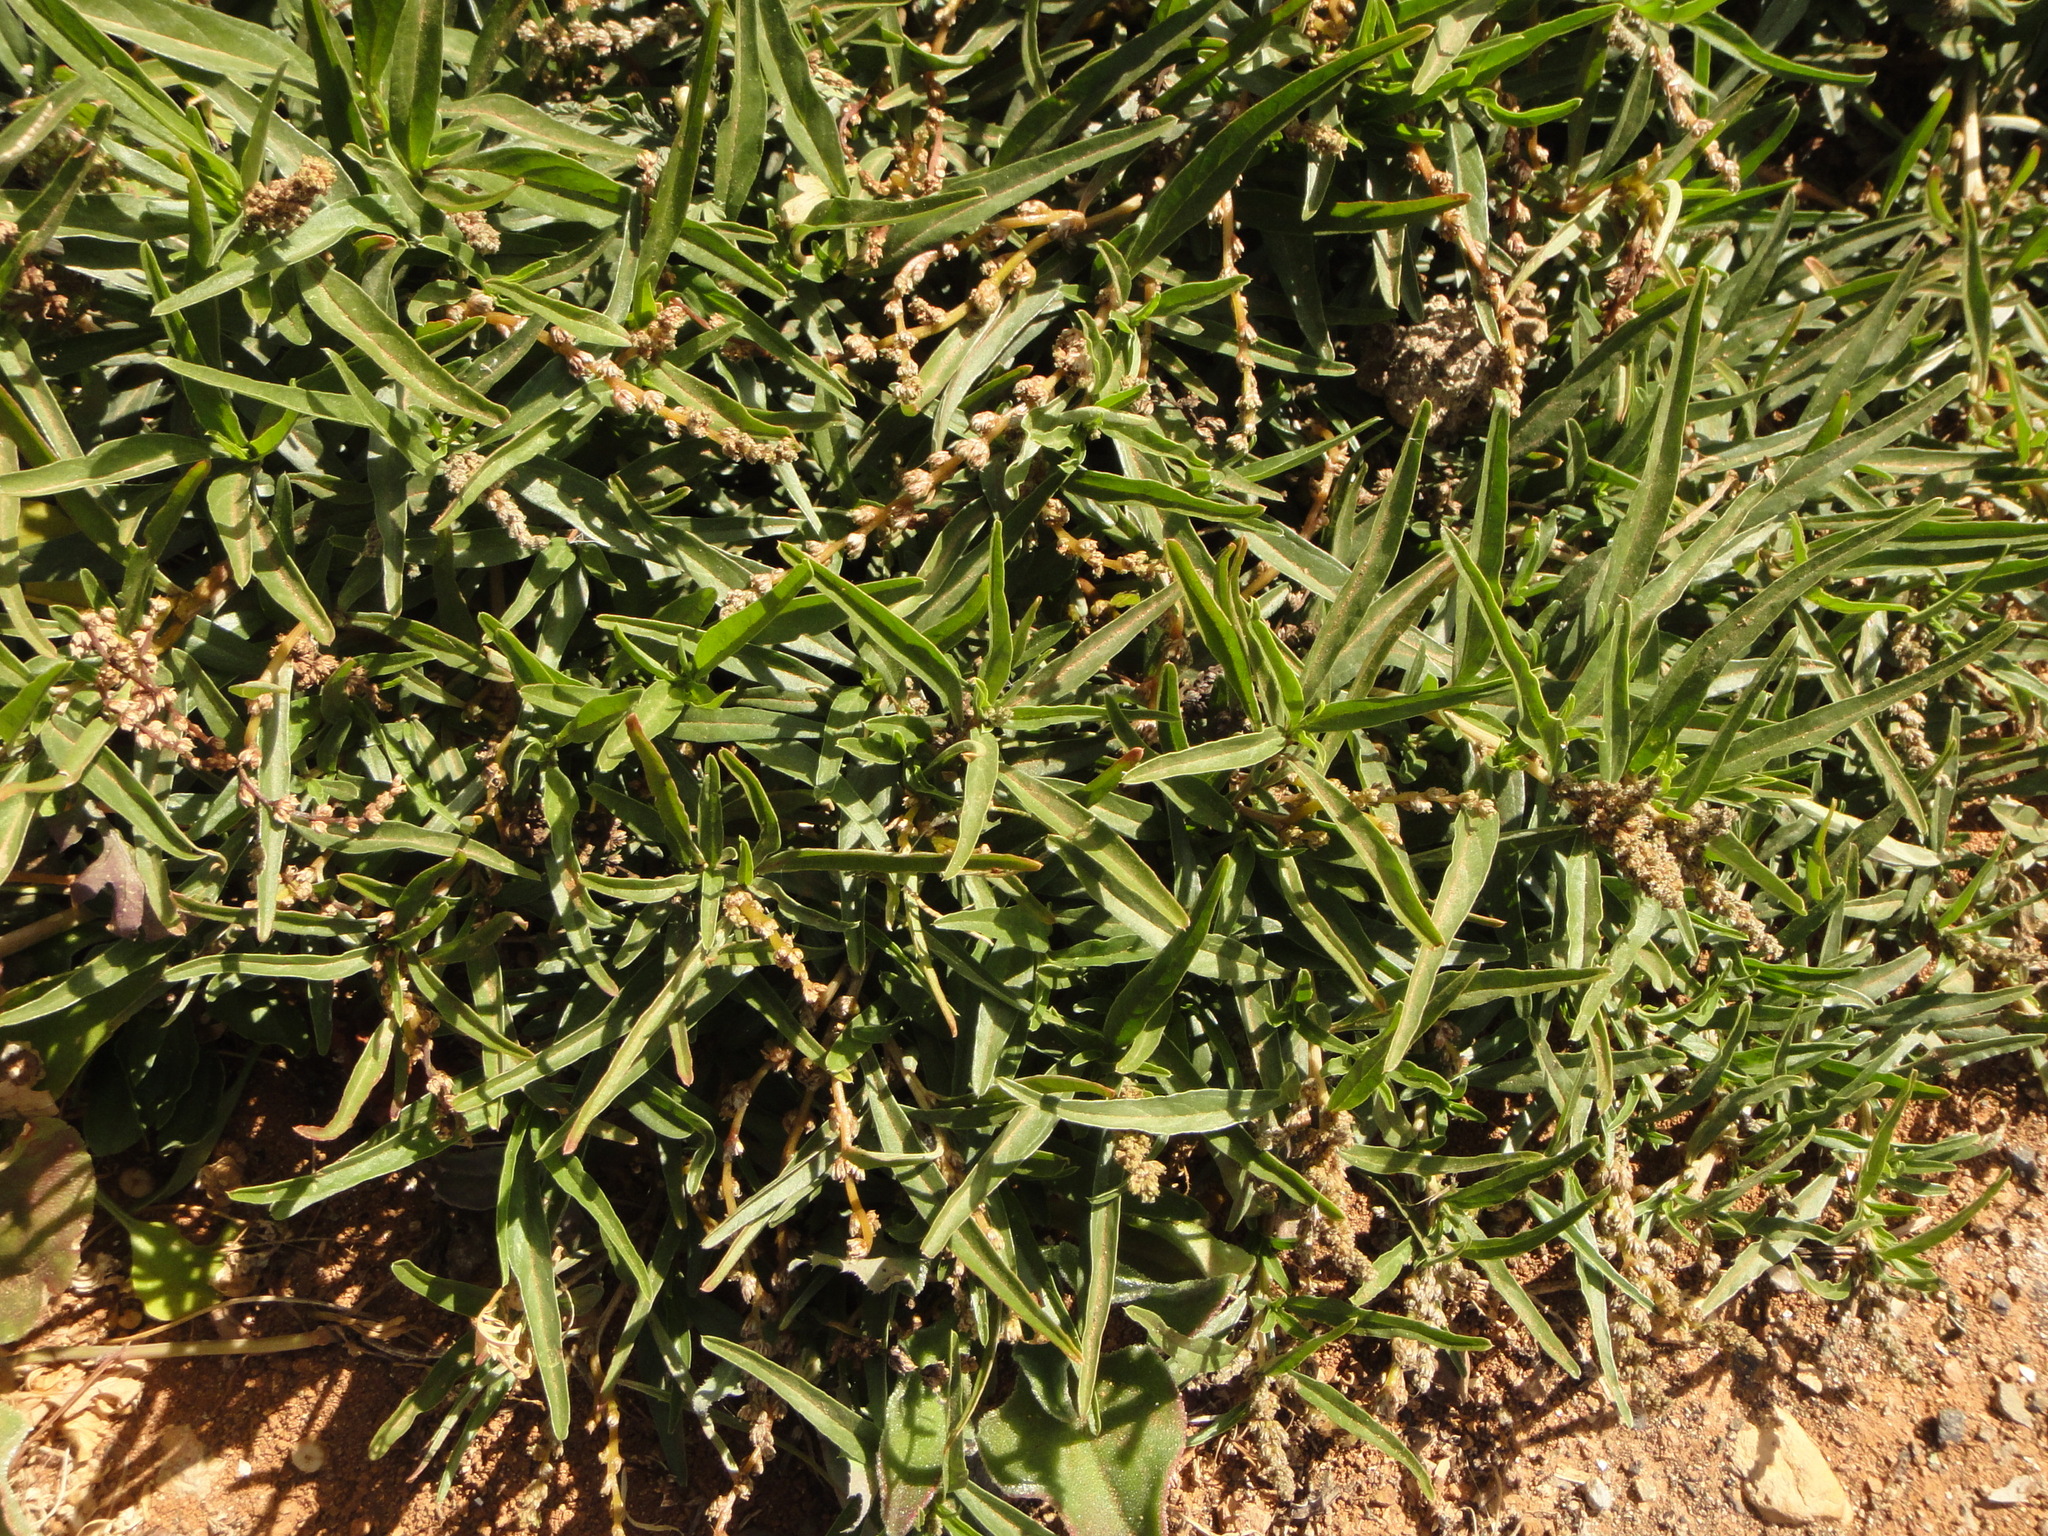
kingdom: Plantae
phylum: Tracheophyta
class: Magnoliopsida
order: Caryophyllales
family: Amaranthaceae
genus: Amaranthus
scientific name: Amaranthus muricatus
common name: African amaranth
